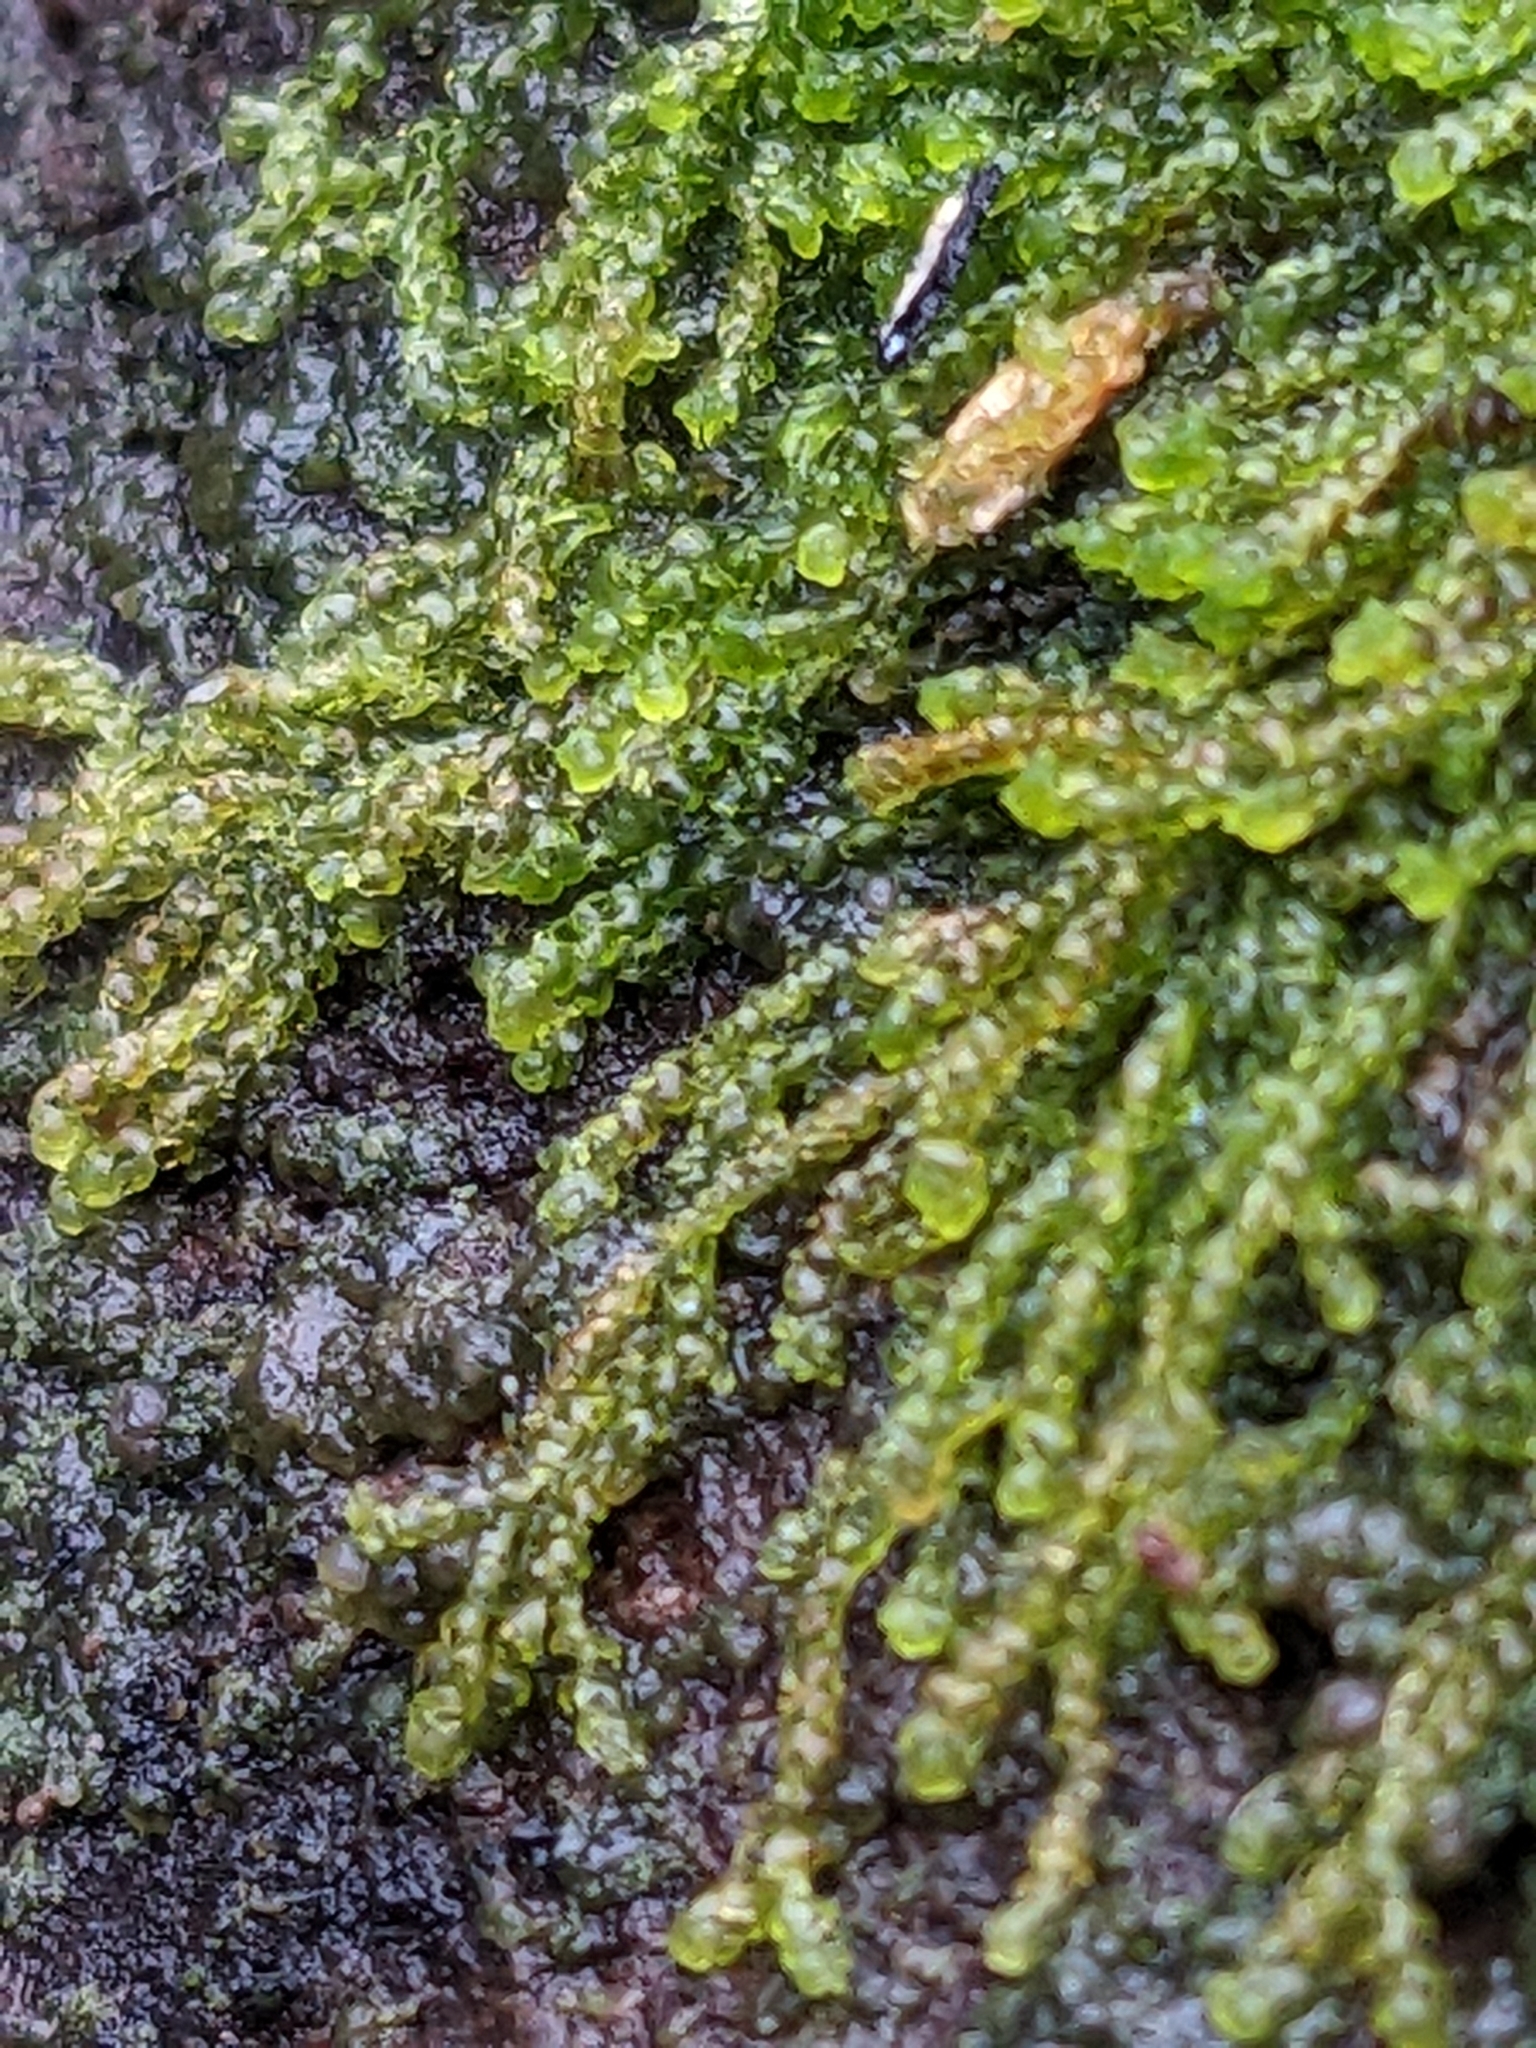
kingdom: Plantae
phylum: Marchantiophyta
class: Jungermanniopsida
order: Jungermanniales
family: Cephaloziaceae
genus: Nowellia
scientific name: Nowellia curvifolia
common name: Wood rustwort
